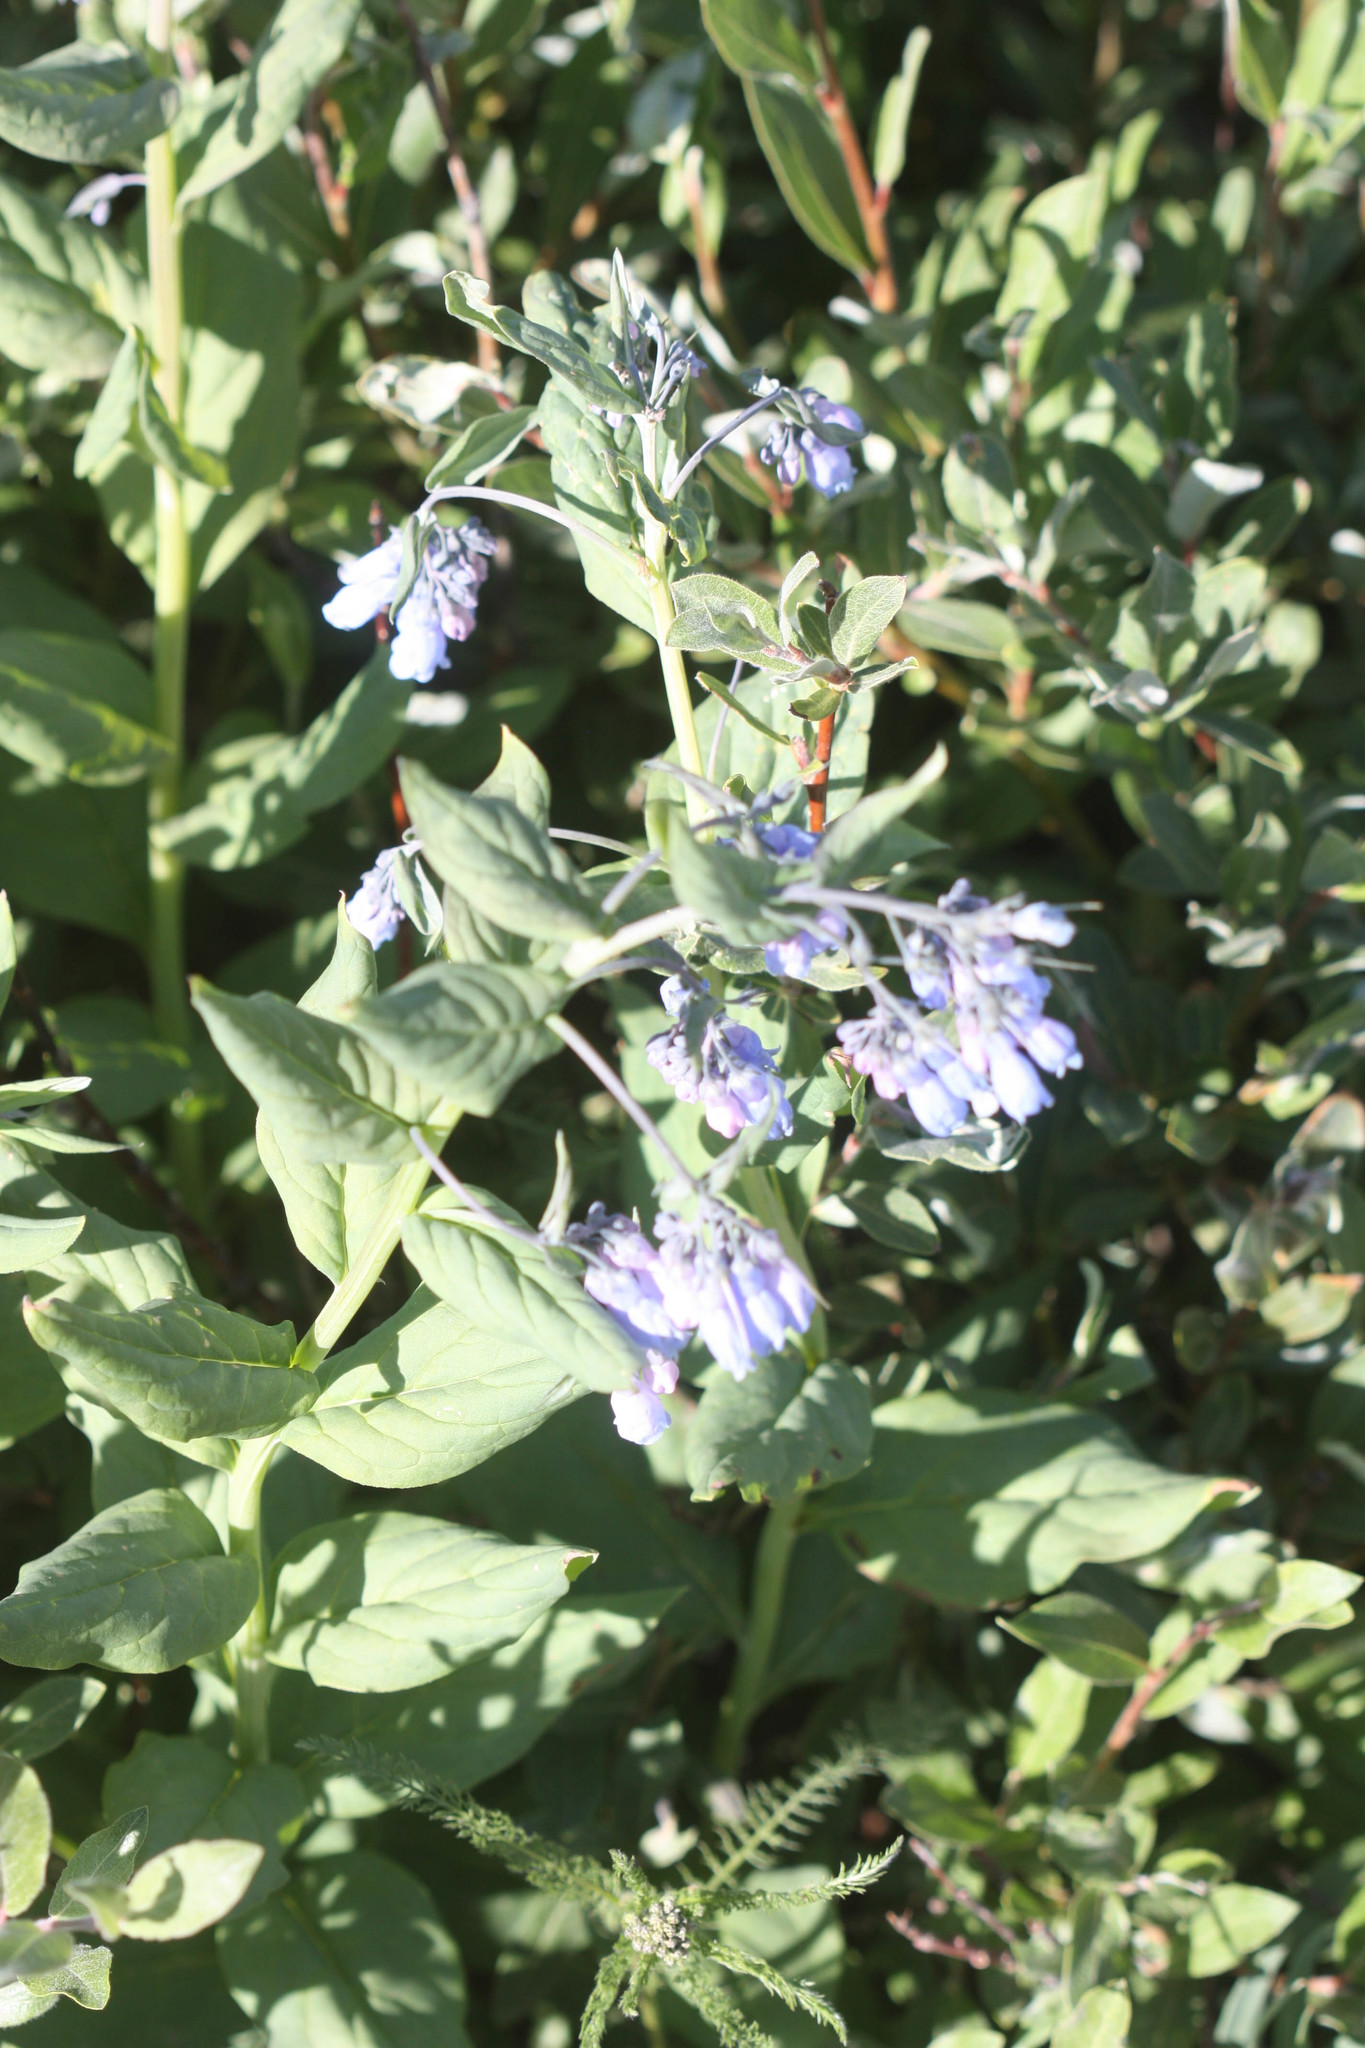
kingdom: Plantae
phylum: Tracheophyta
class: Magnoliopsida
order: Boraginales
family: Boraginaceae
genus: Mertensia
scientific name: Mertensia ciliata
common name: Tall chiming-bells
